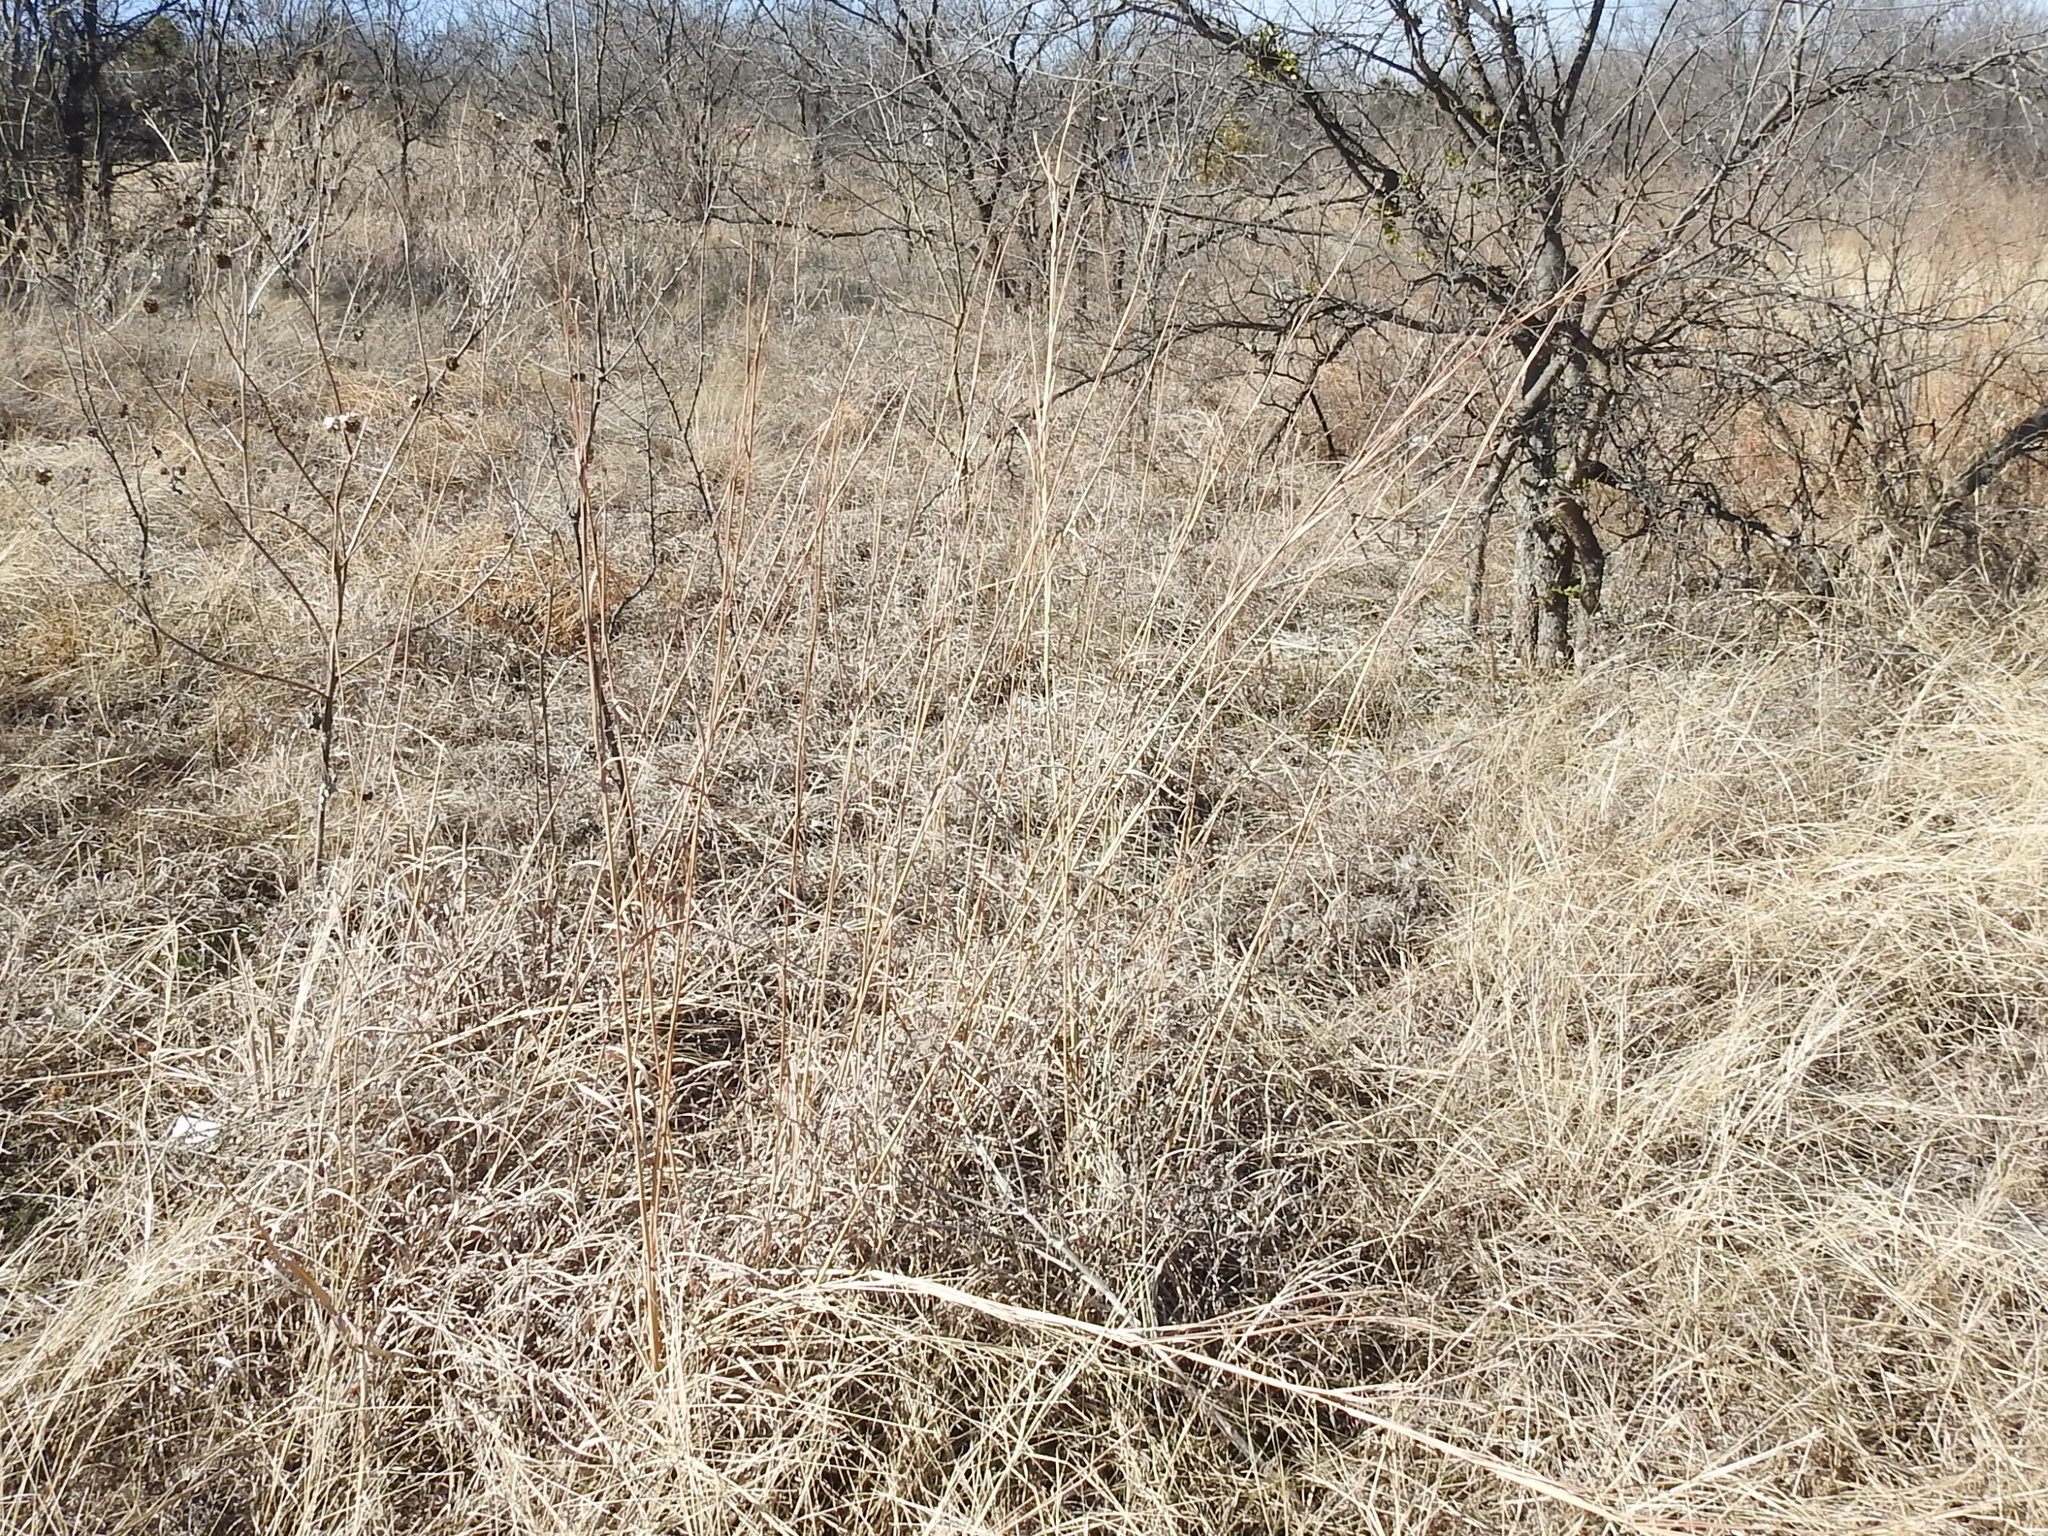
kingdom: Plantae
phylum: Tracheophyta
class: Liliopsida
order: Poales
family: Poaceae
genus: Andropogon
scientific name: Andropogon gerardi
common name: Big bluestem
